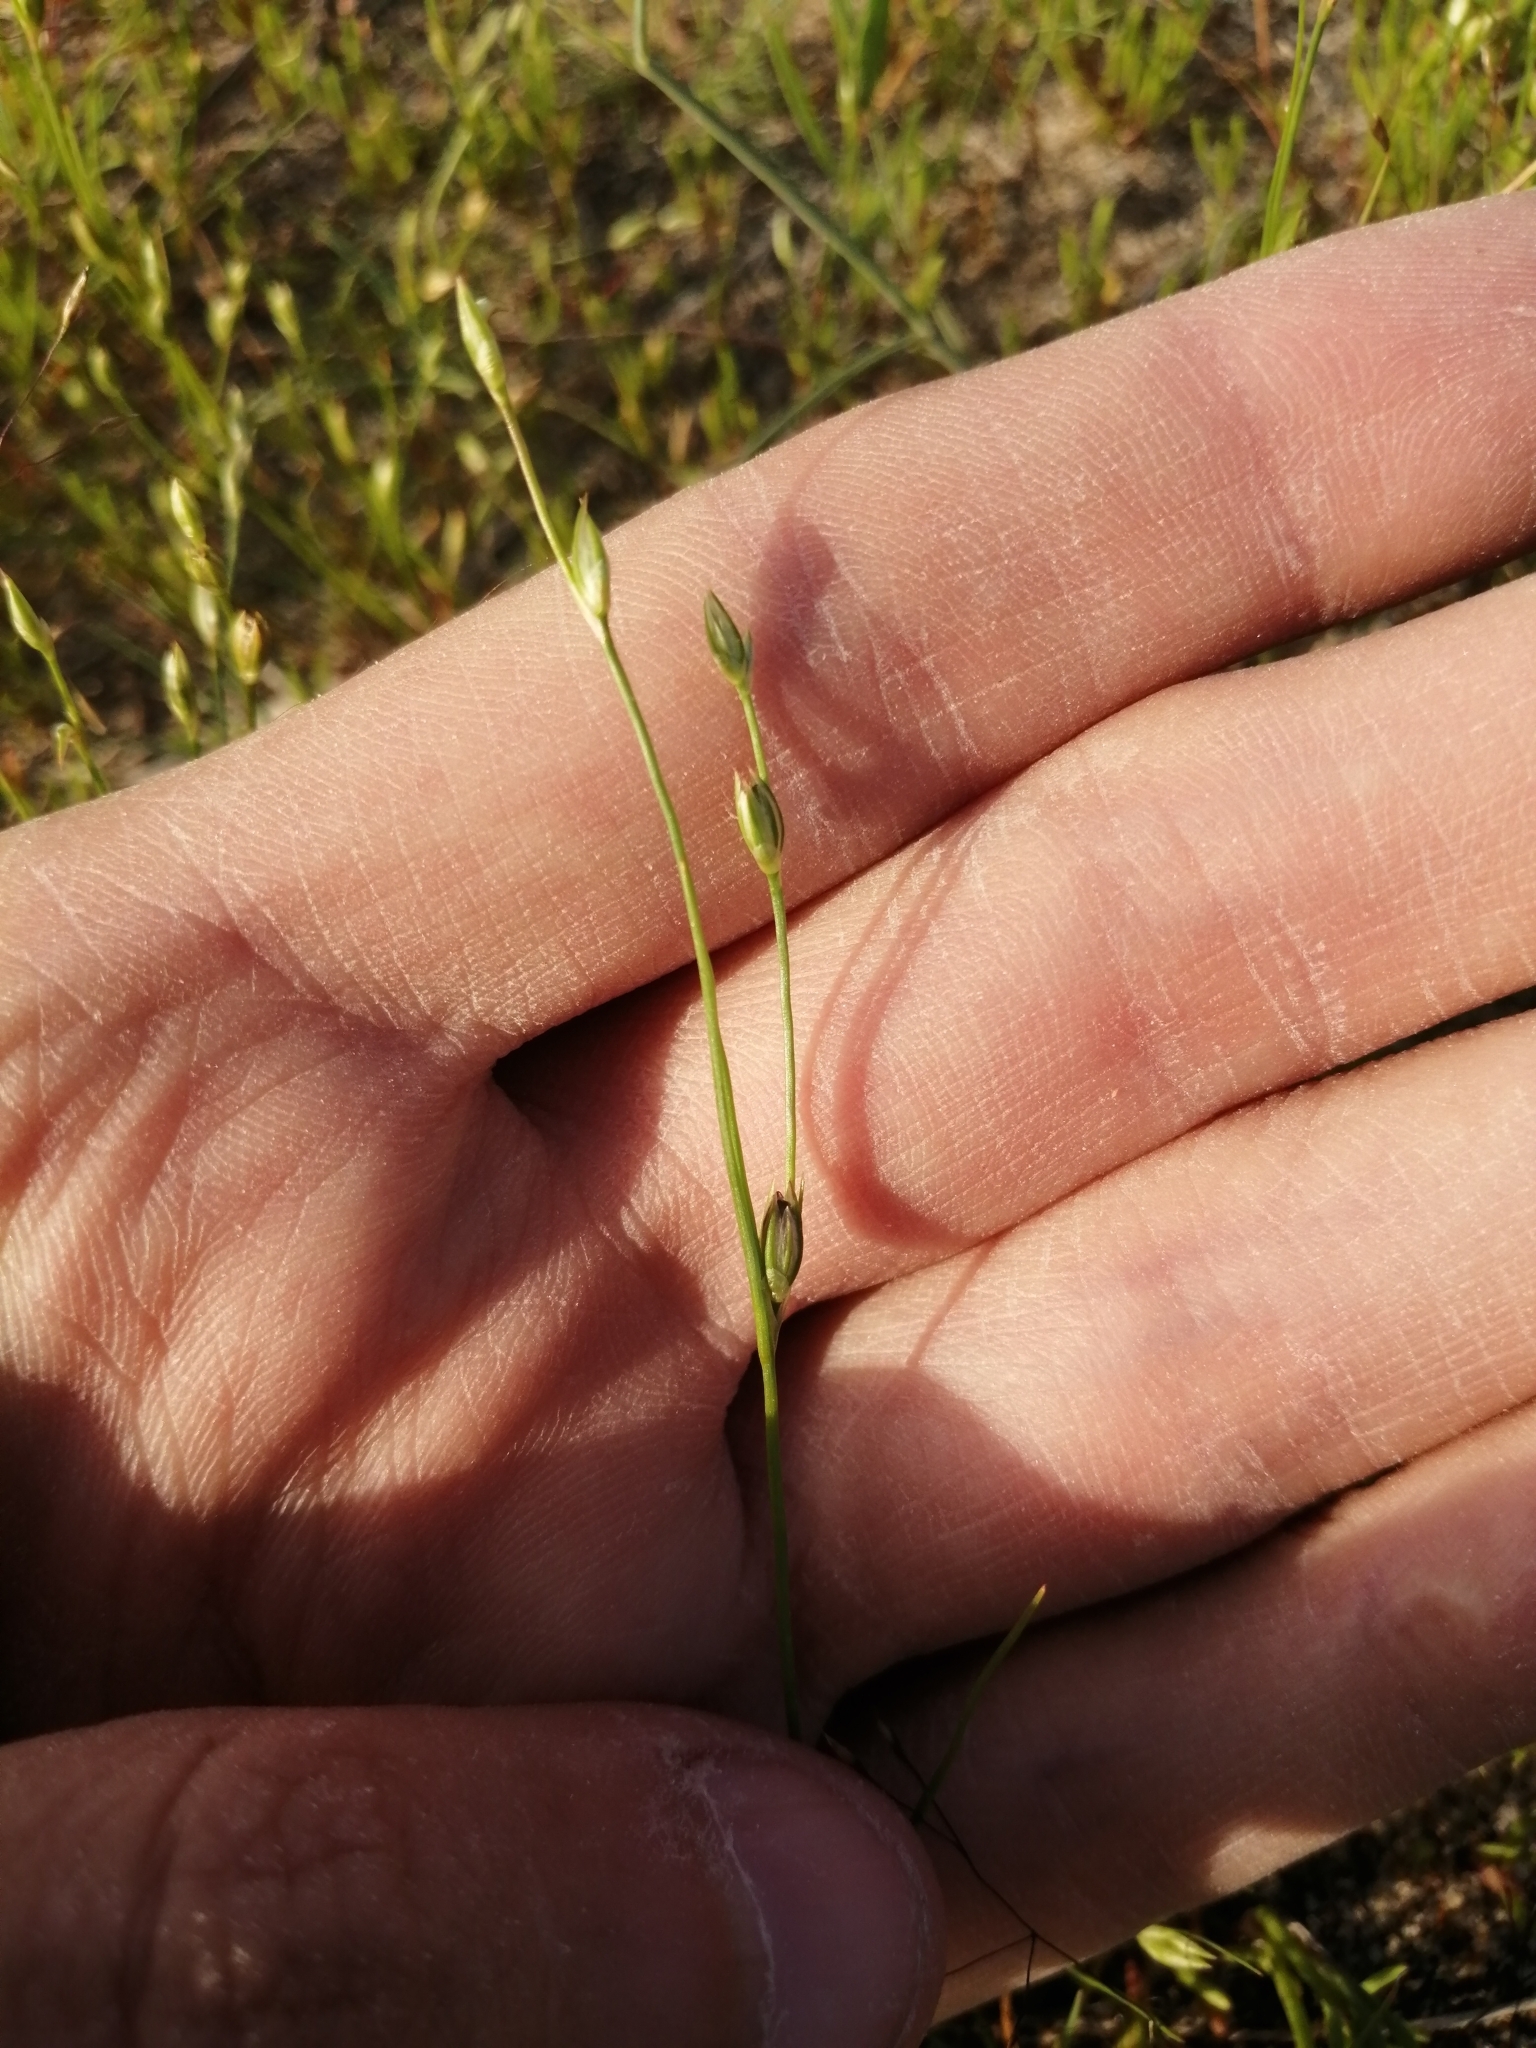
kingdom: Plantae
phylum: Tracheophyta
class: Liliopsida
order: Poales
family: Juncaceae
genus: Juncus
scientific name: Juncus bufonius
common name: Toad rush
